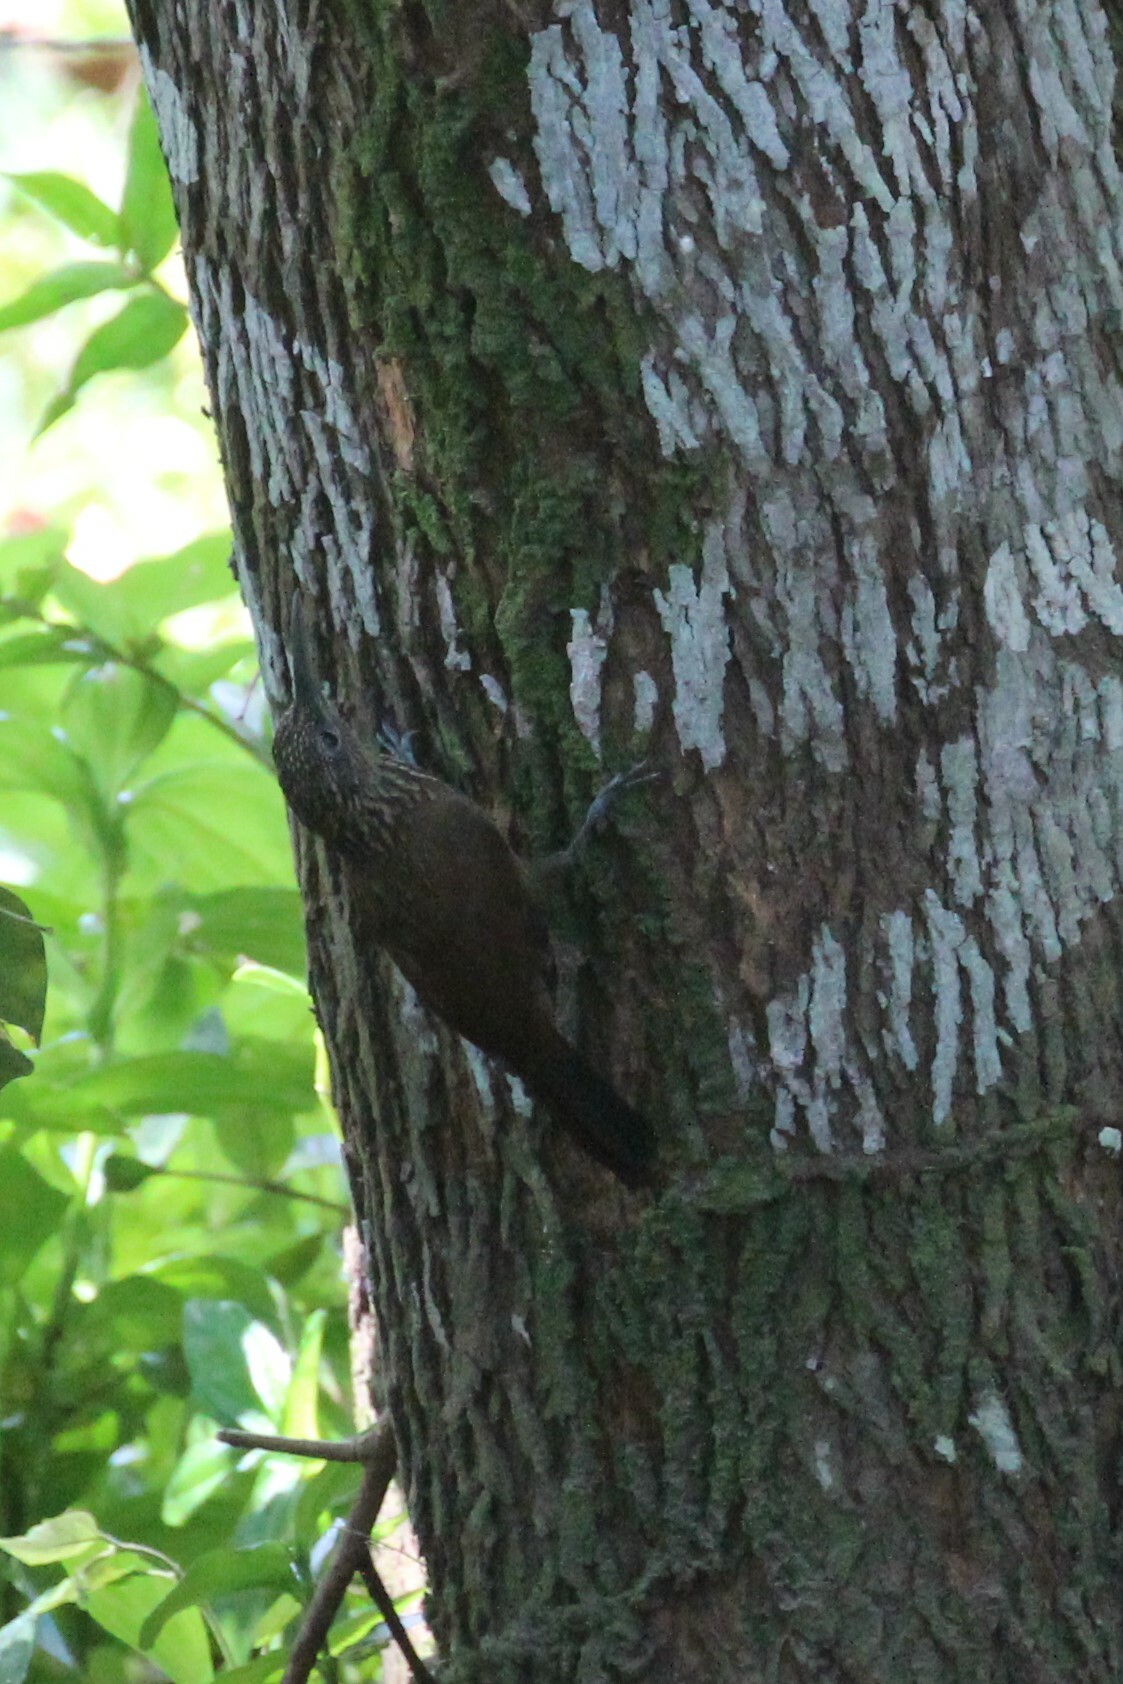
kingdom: Animalia
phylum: Chordata
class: Aves
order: Passeriformes
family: Furnariidae
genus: Xiphorhynchus
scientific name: Xiphorhynchus susurrans
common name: Cocoa woodcreeper
